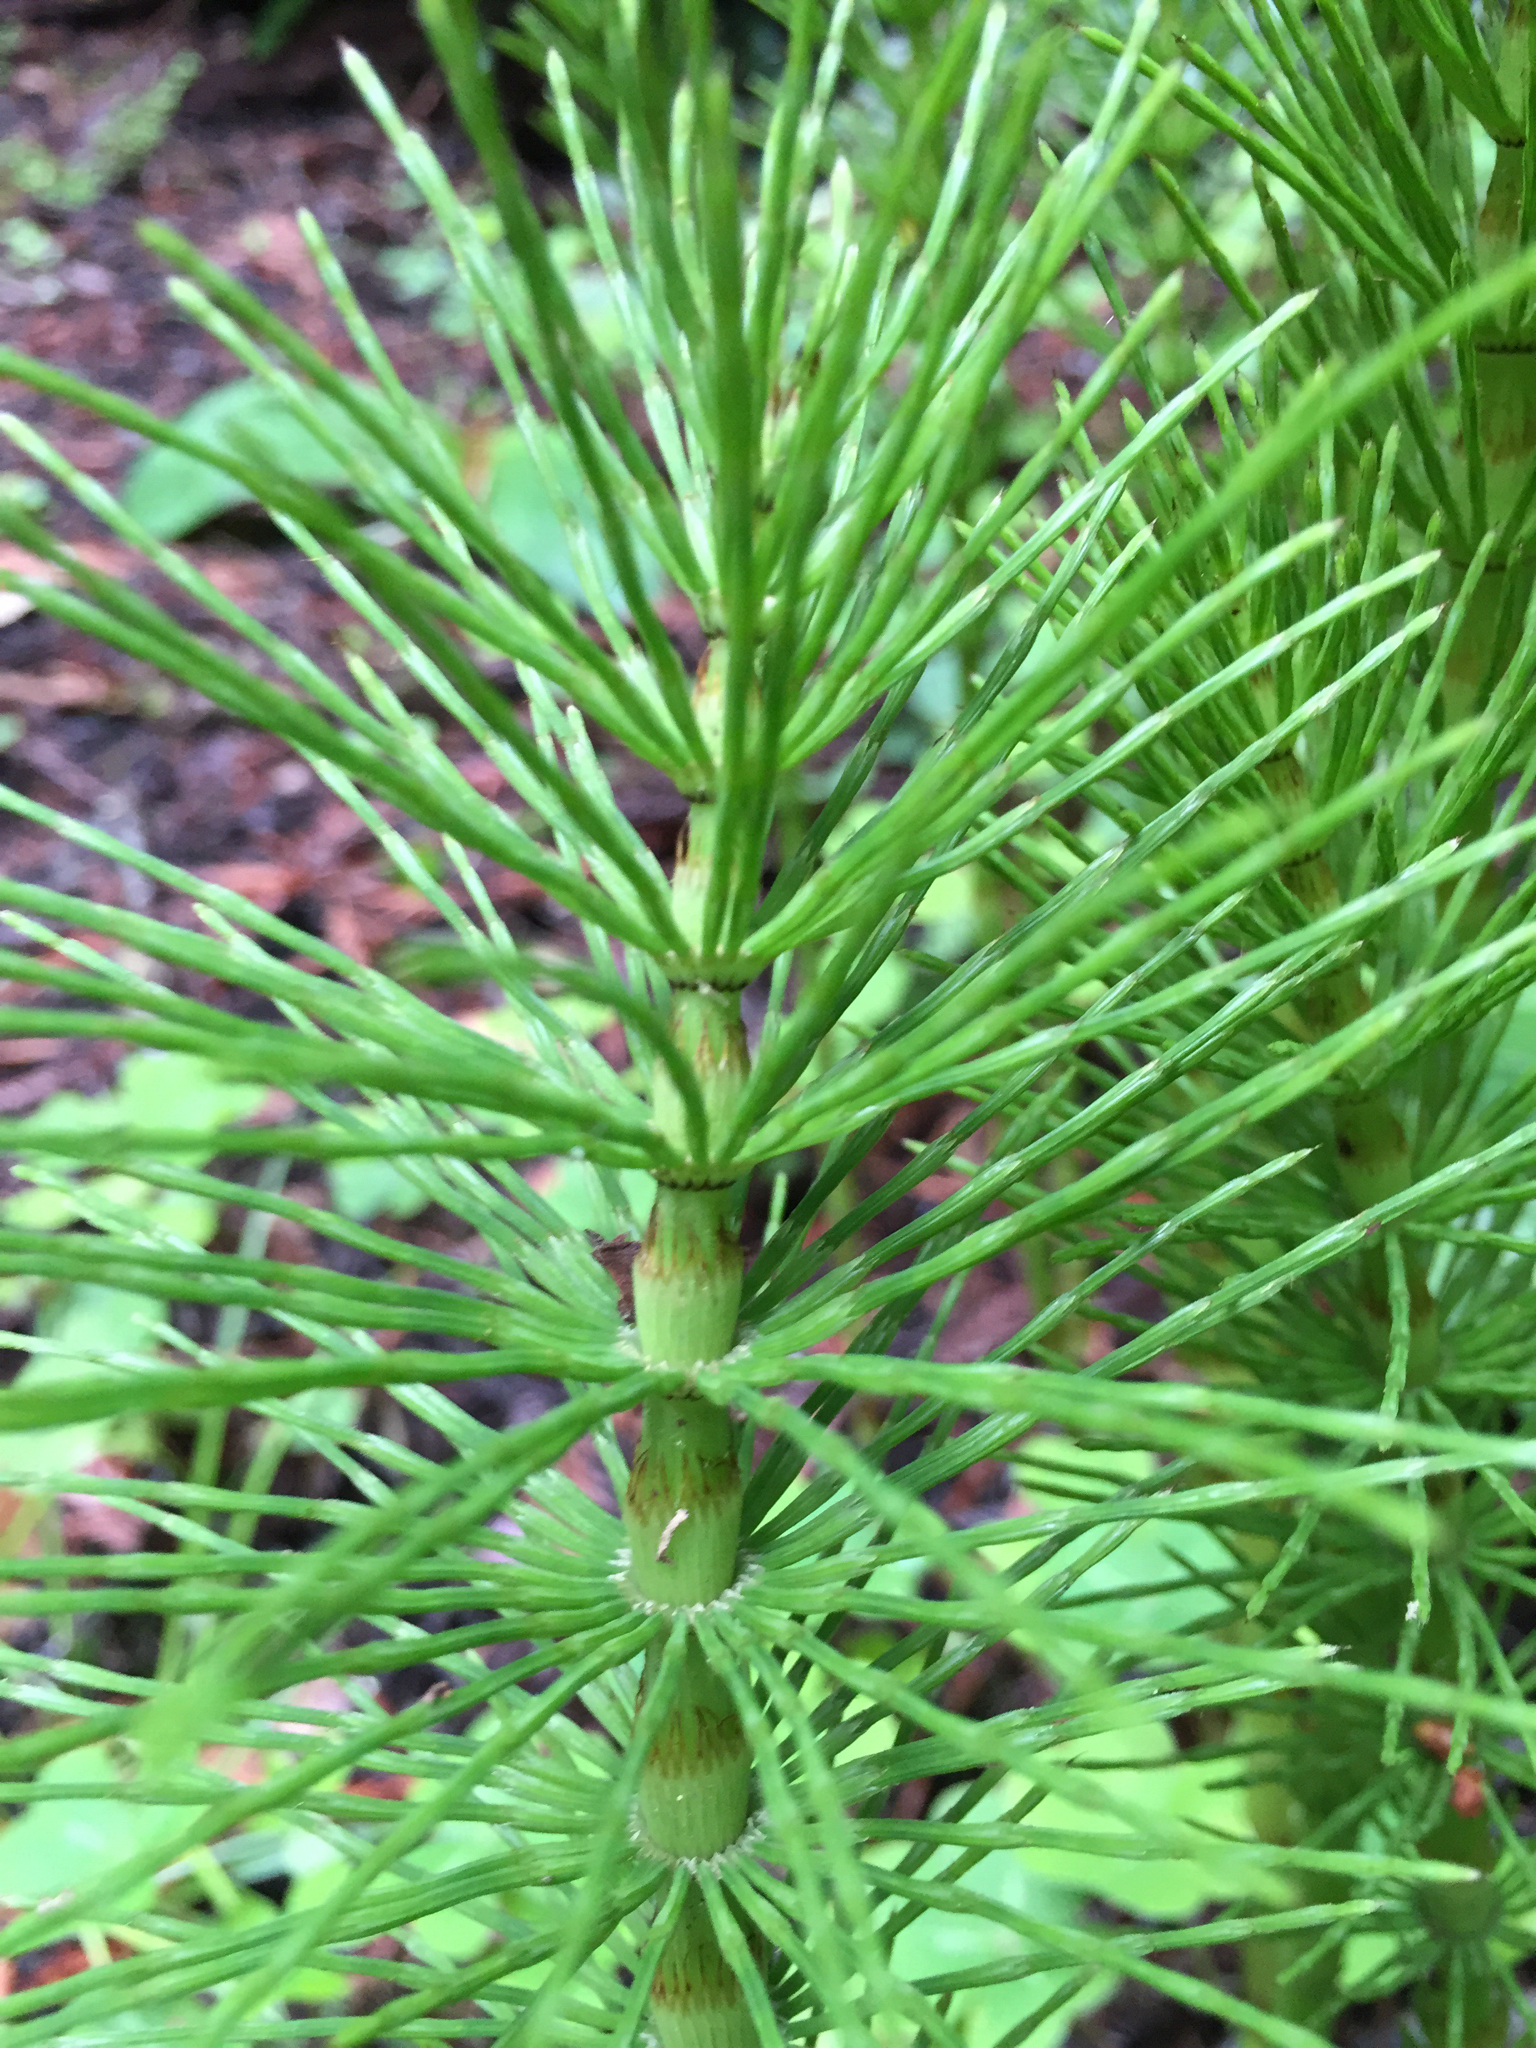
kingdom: Plantae
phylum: Tracheophyta
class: Polypodiopsida
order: Equisetales
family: Equisetaceae
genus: Equisetum
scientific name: Equisetum telmateia
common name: Great horsetail
